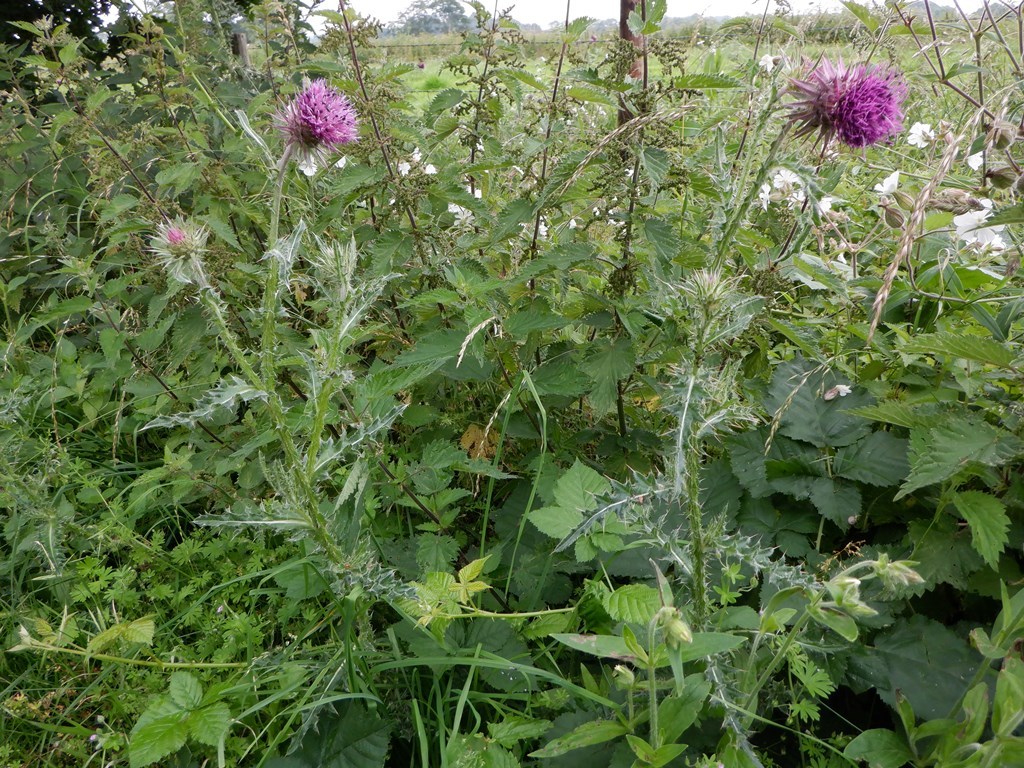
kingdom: Plantae
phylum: Tracheophyta
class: Magnoliopsida
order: Asterales
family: Asteraceae
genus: Carduus
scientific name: Carduus nutans
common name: Musk thistle
